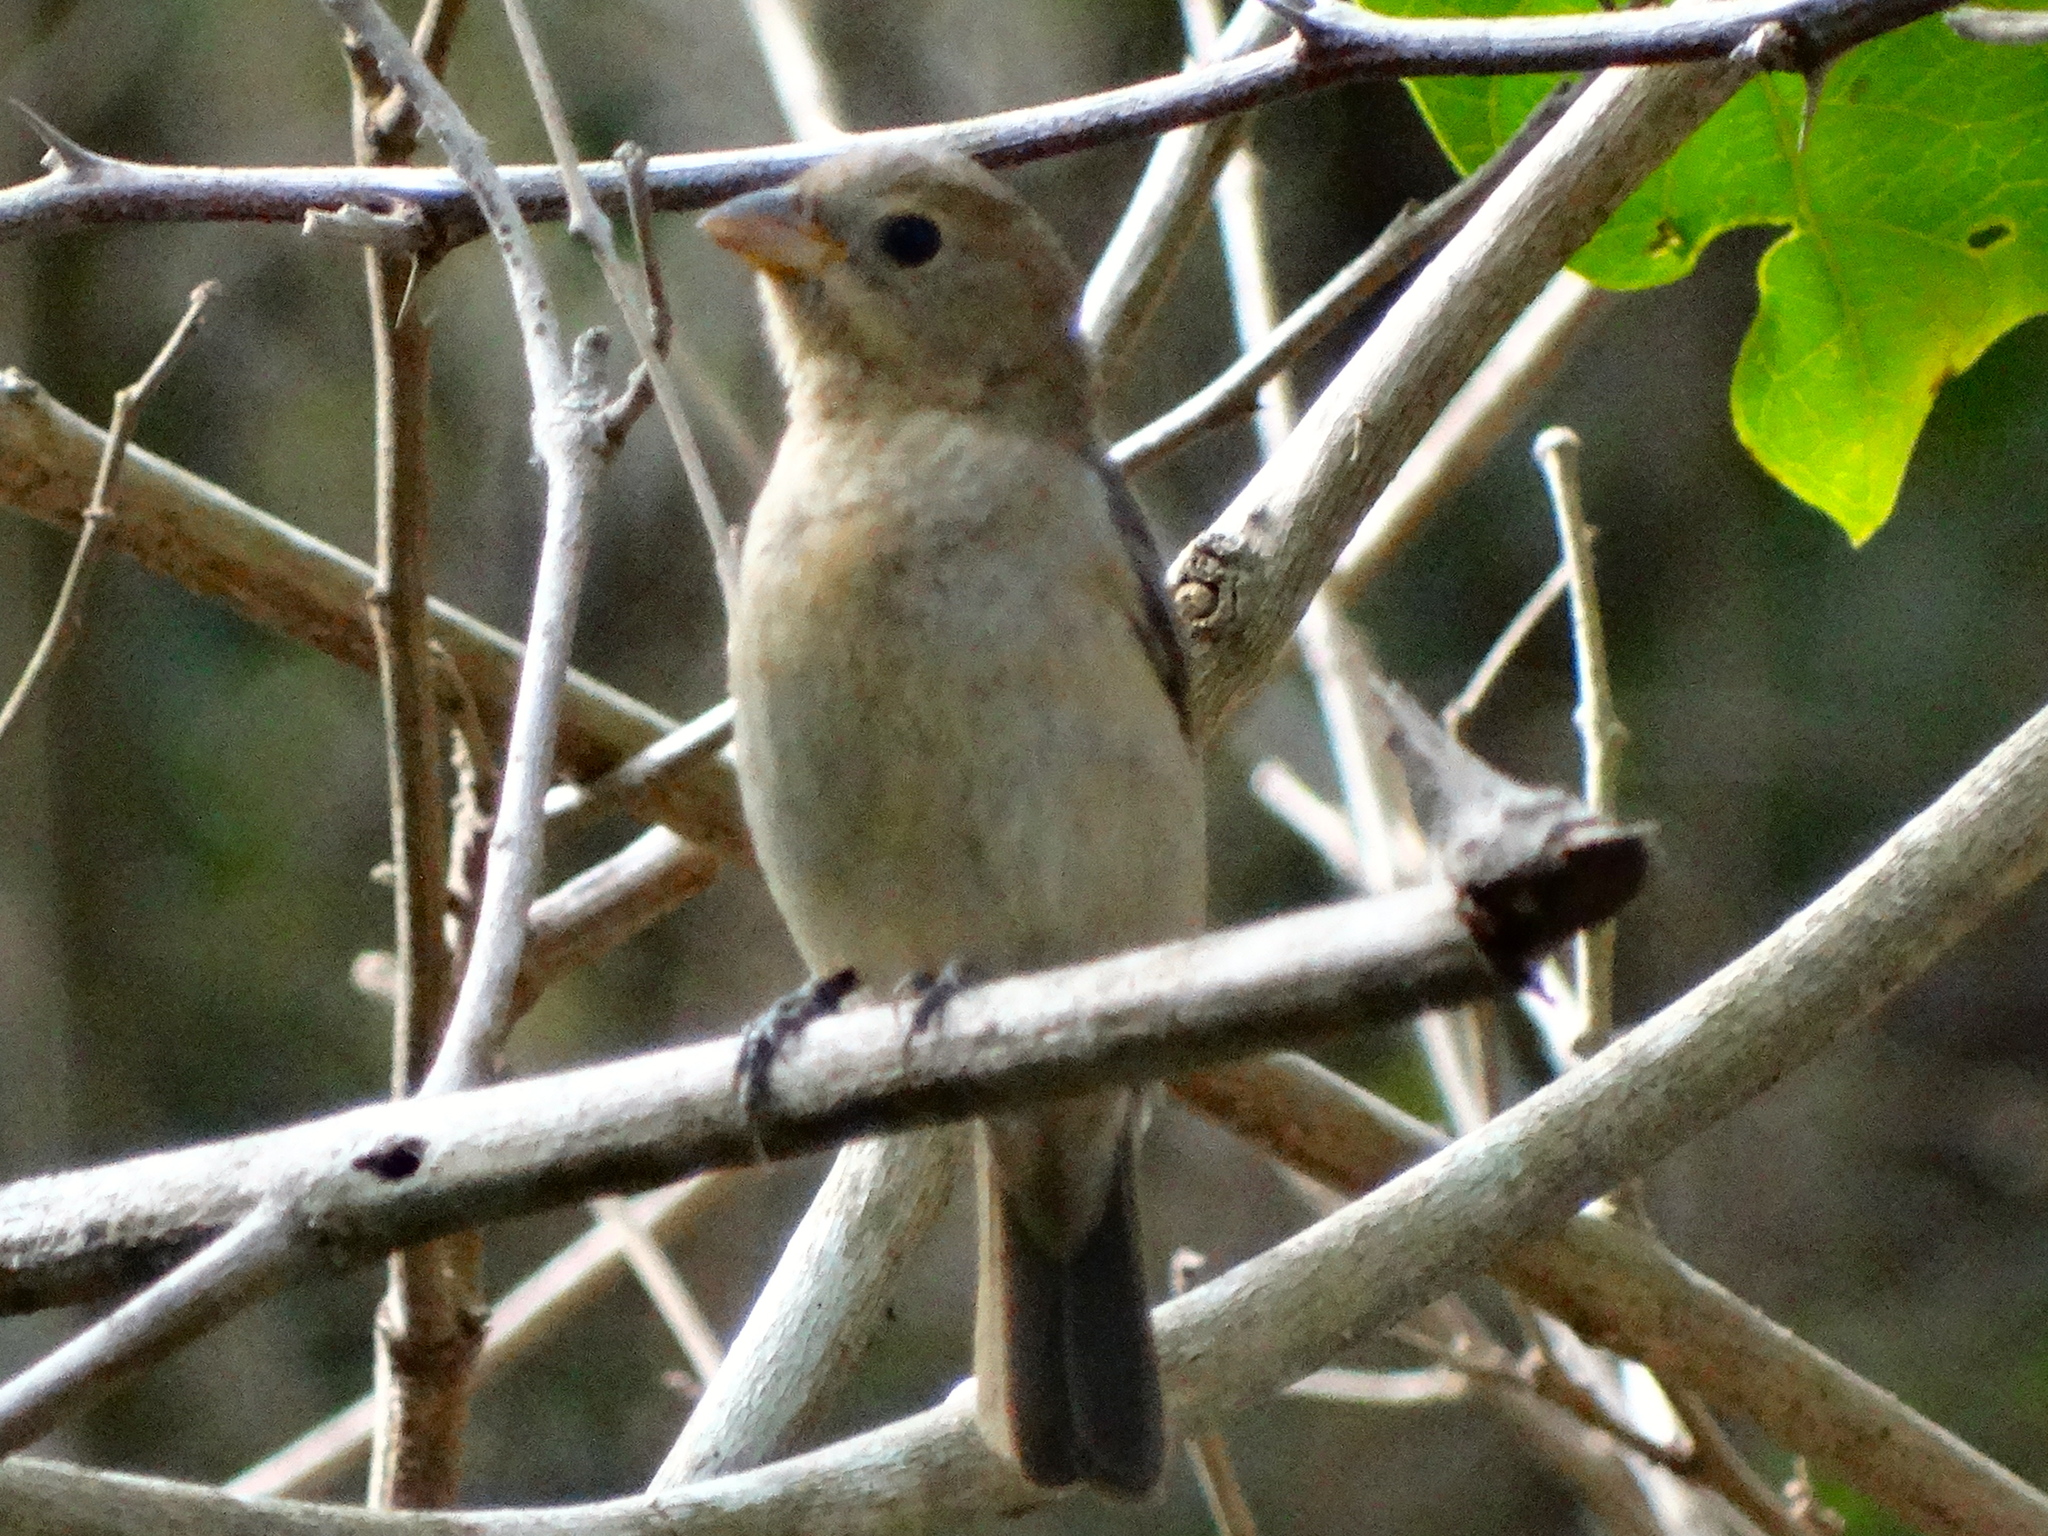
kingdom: Animalia
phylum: Chordata
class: Aves
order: Passeriformes
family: Cardinalidae
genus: Passerina
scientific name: Passerina versicolor
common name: Varied bunting
